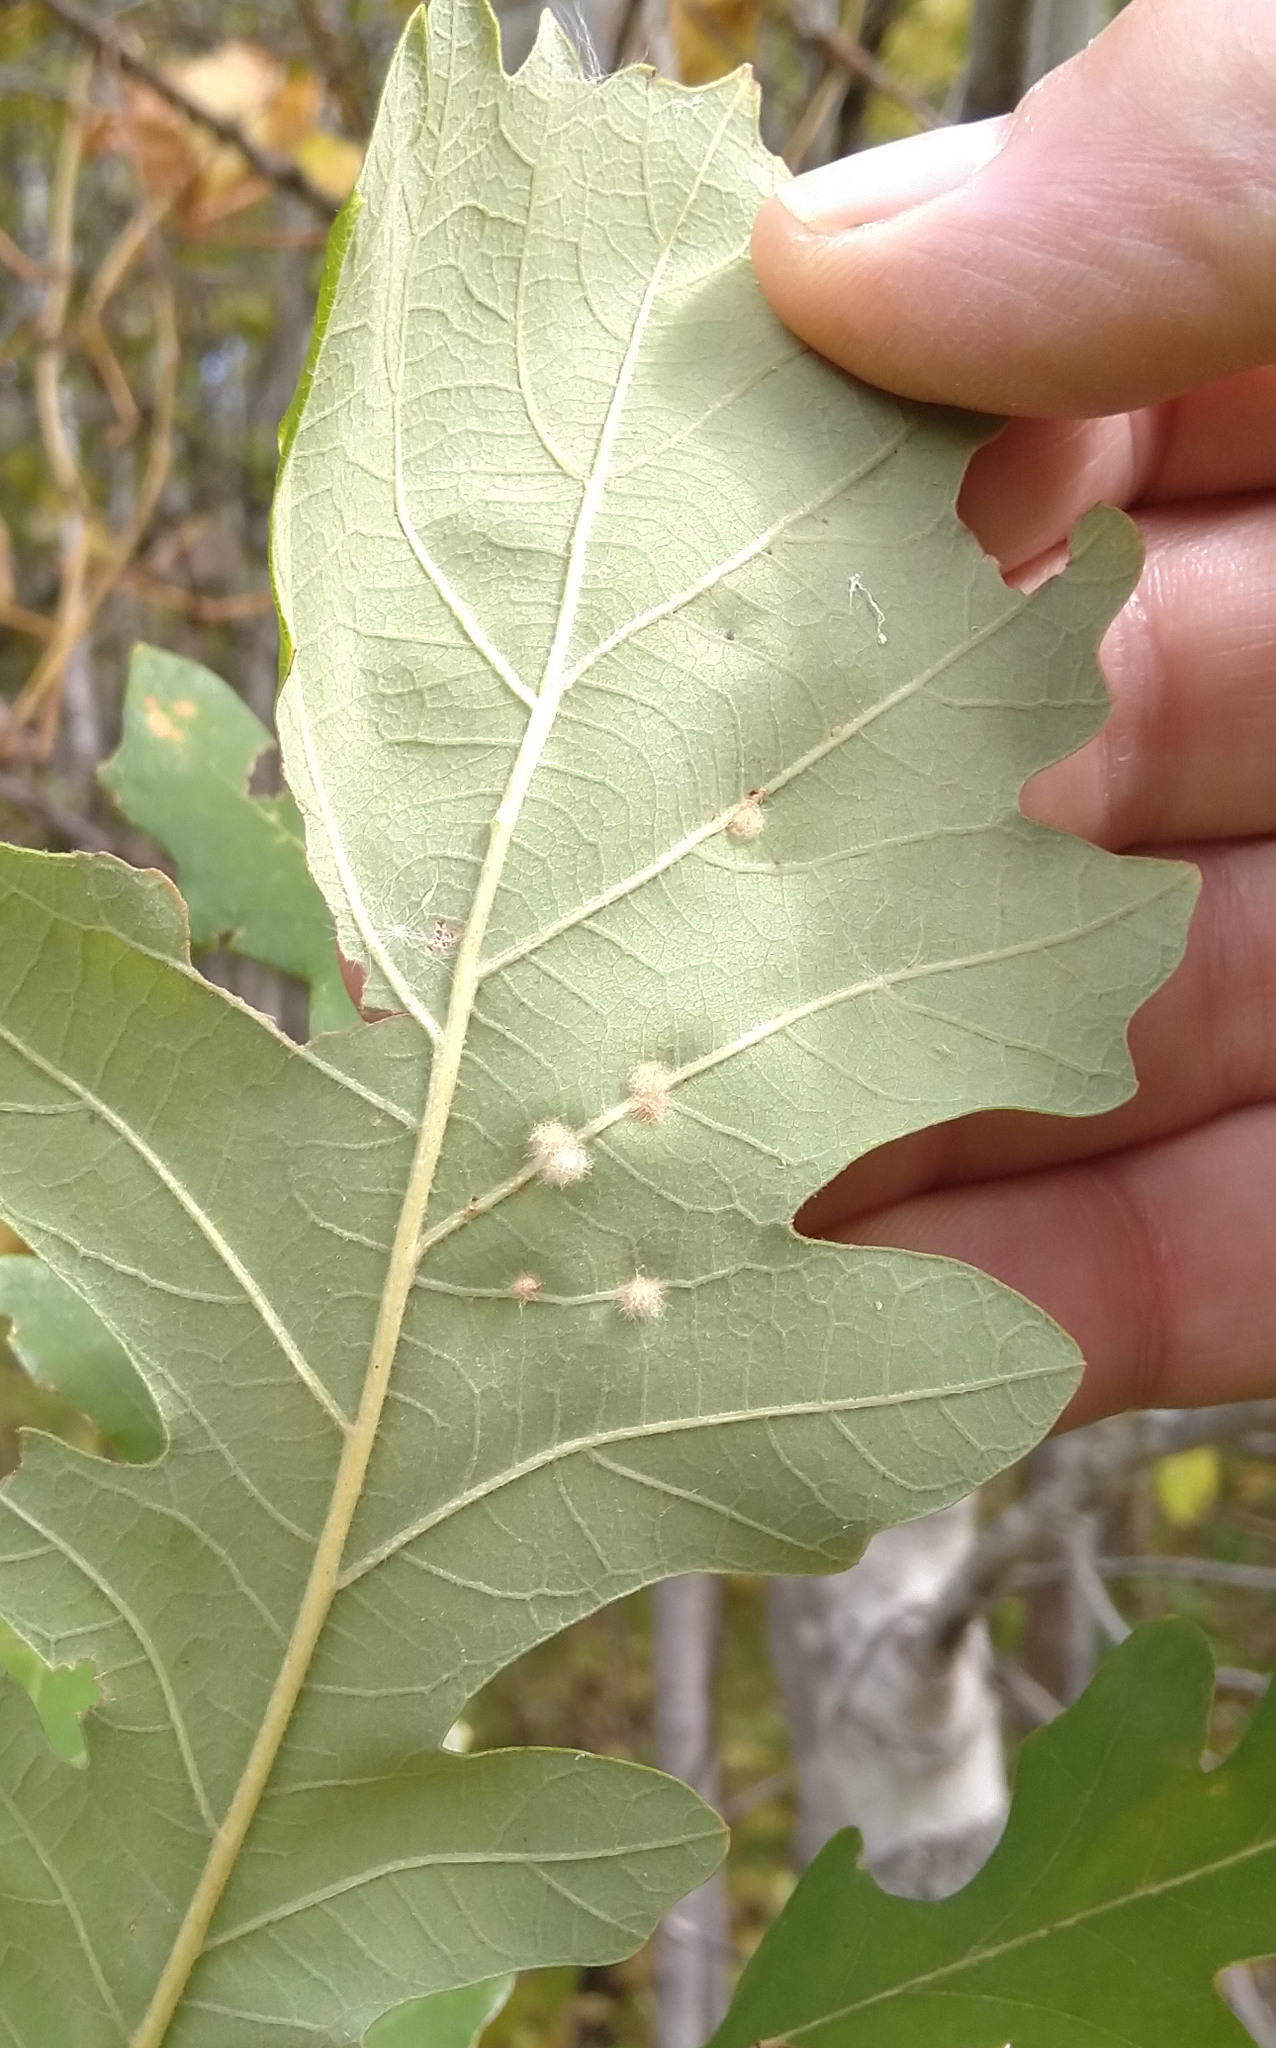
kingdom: Animalia
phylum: Arthropoda
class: Insecta
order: Hymenoptera
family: Cynipidae
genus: Neuroterus
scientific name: Neuroterus quercusverrucarum
